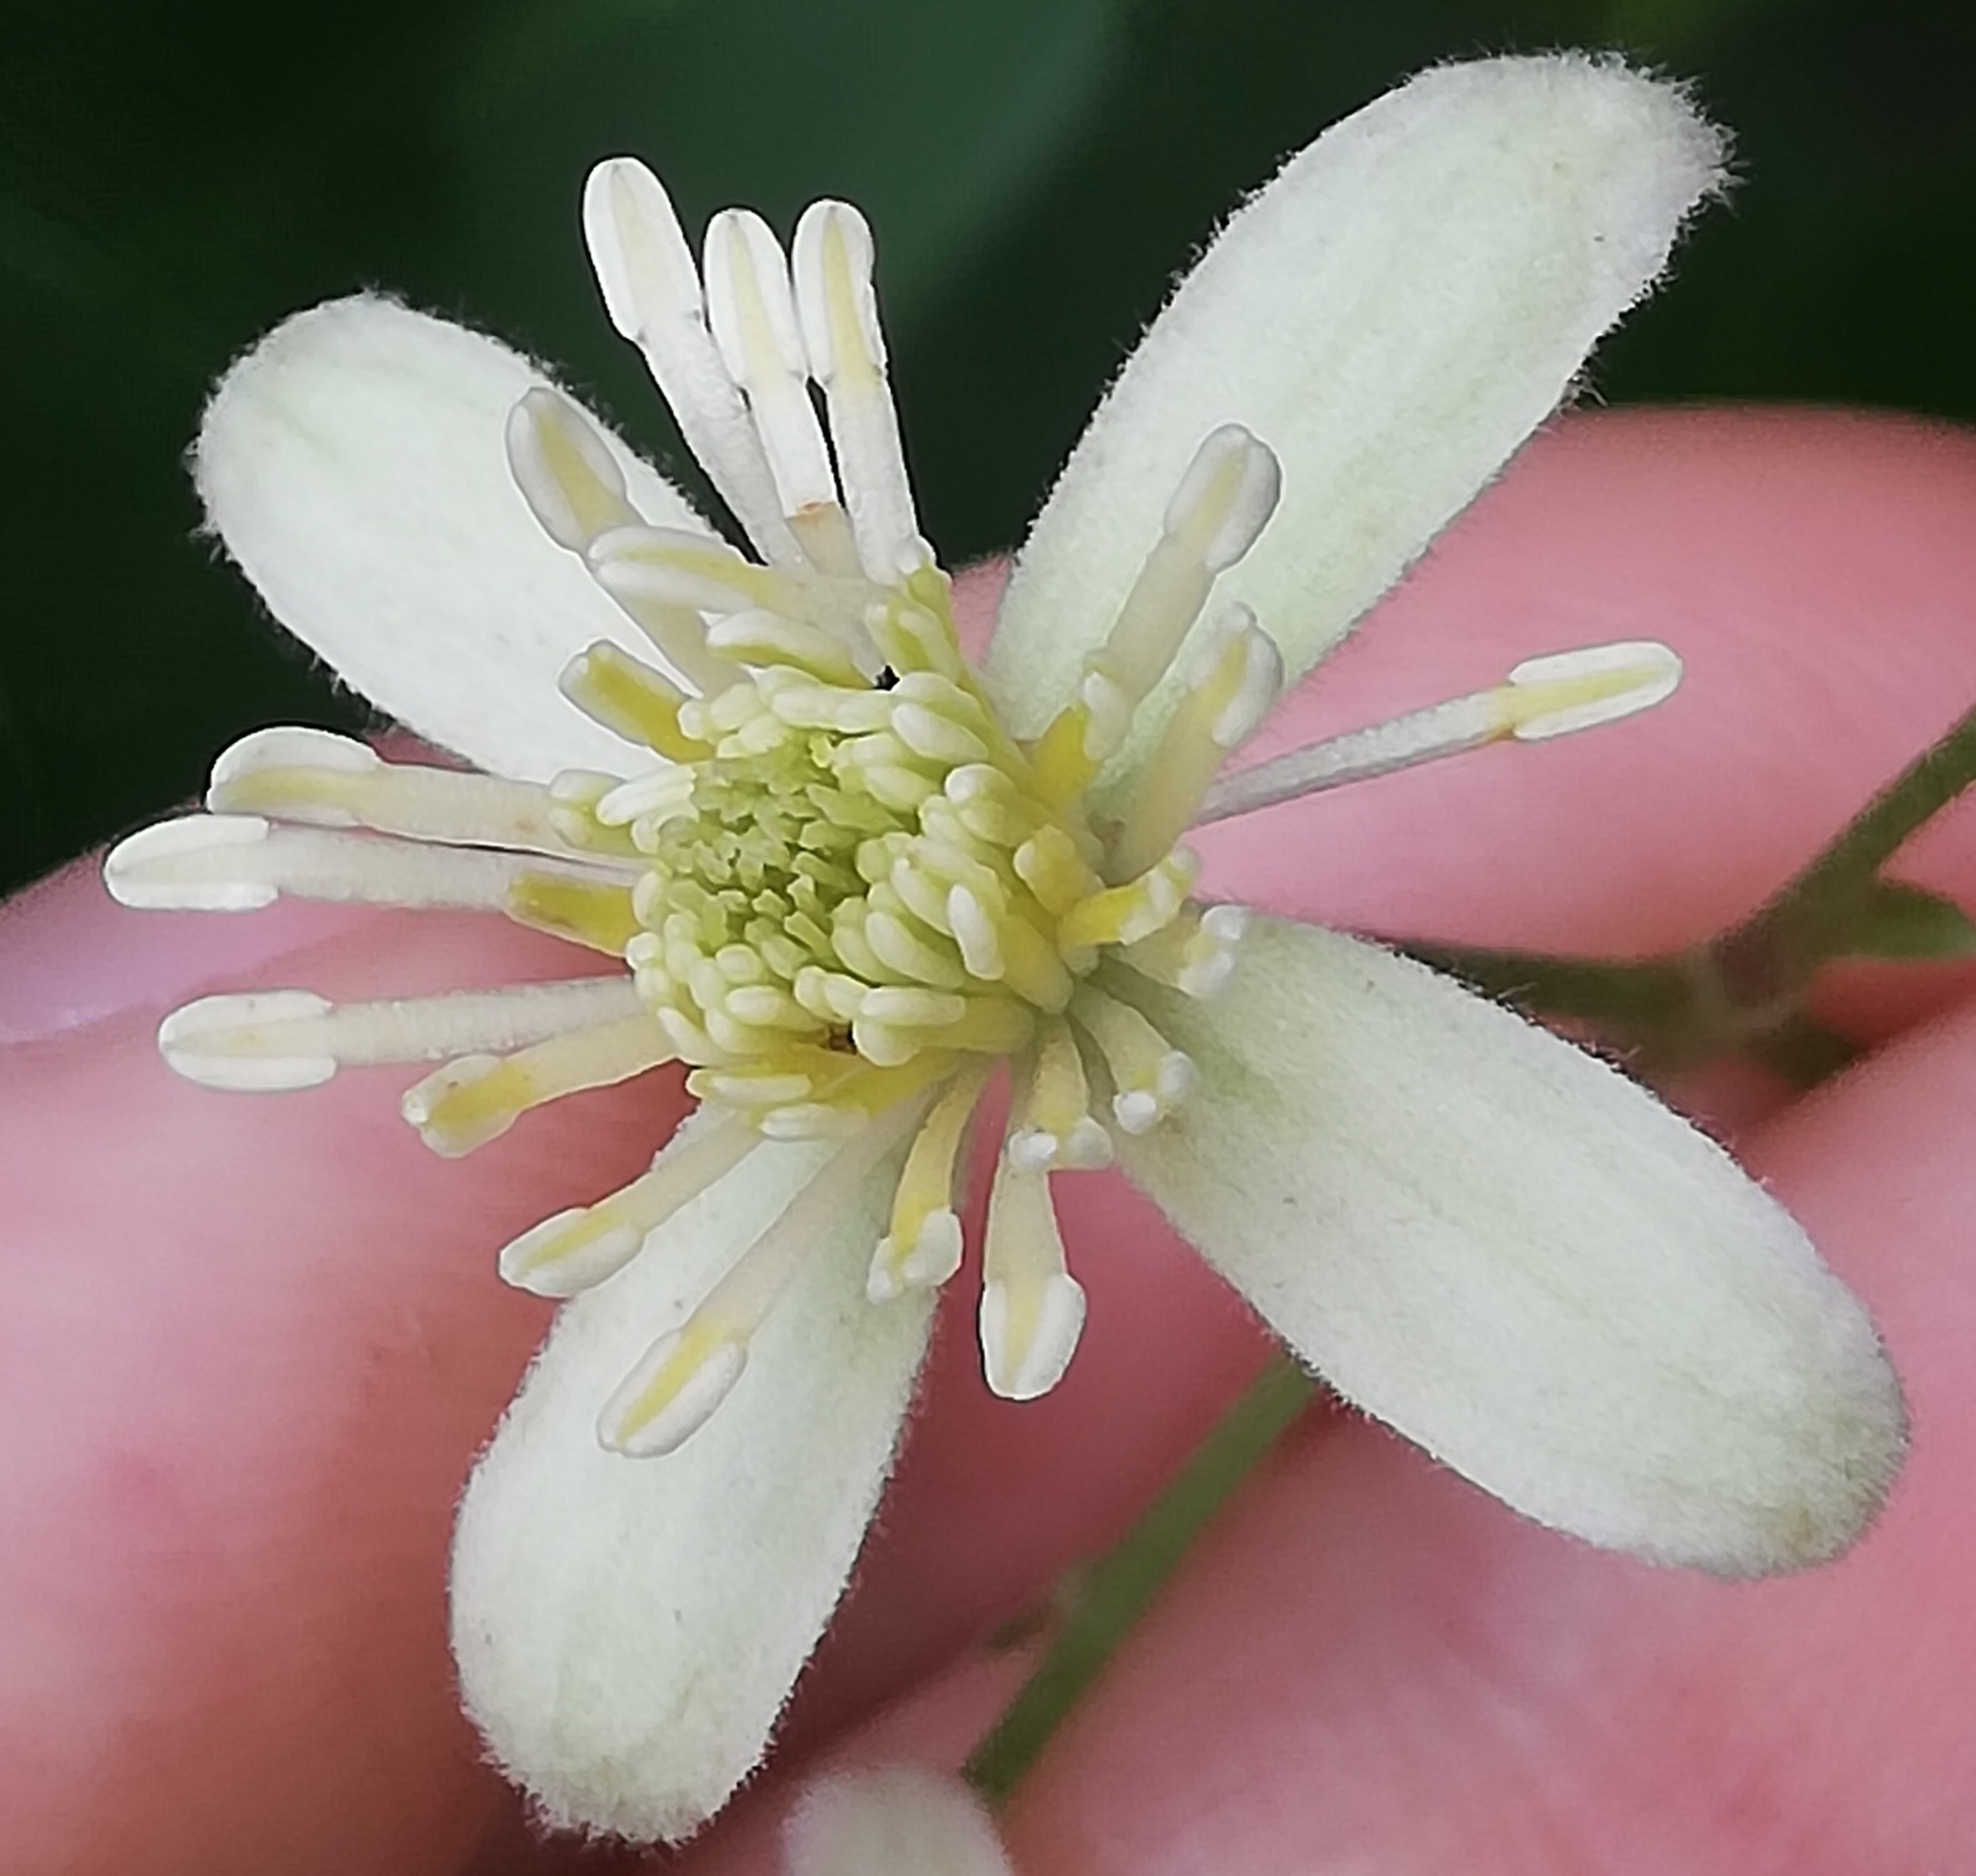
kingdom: Plantae
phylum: Tracheophyta
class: Magnoliopsida
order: Ranunculales
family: Ranunculaceae
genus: Clematis
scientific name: Clematis vitalba
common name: Evergreen clematis
